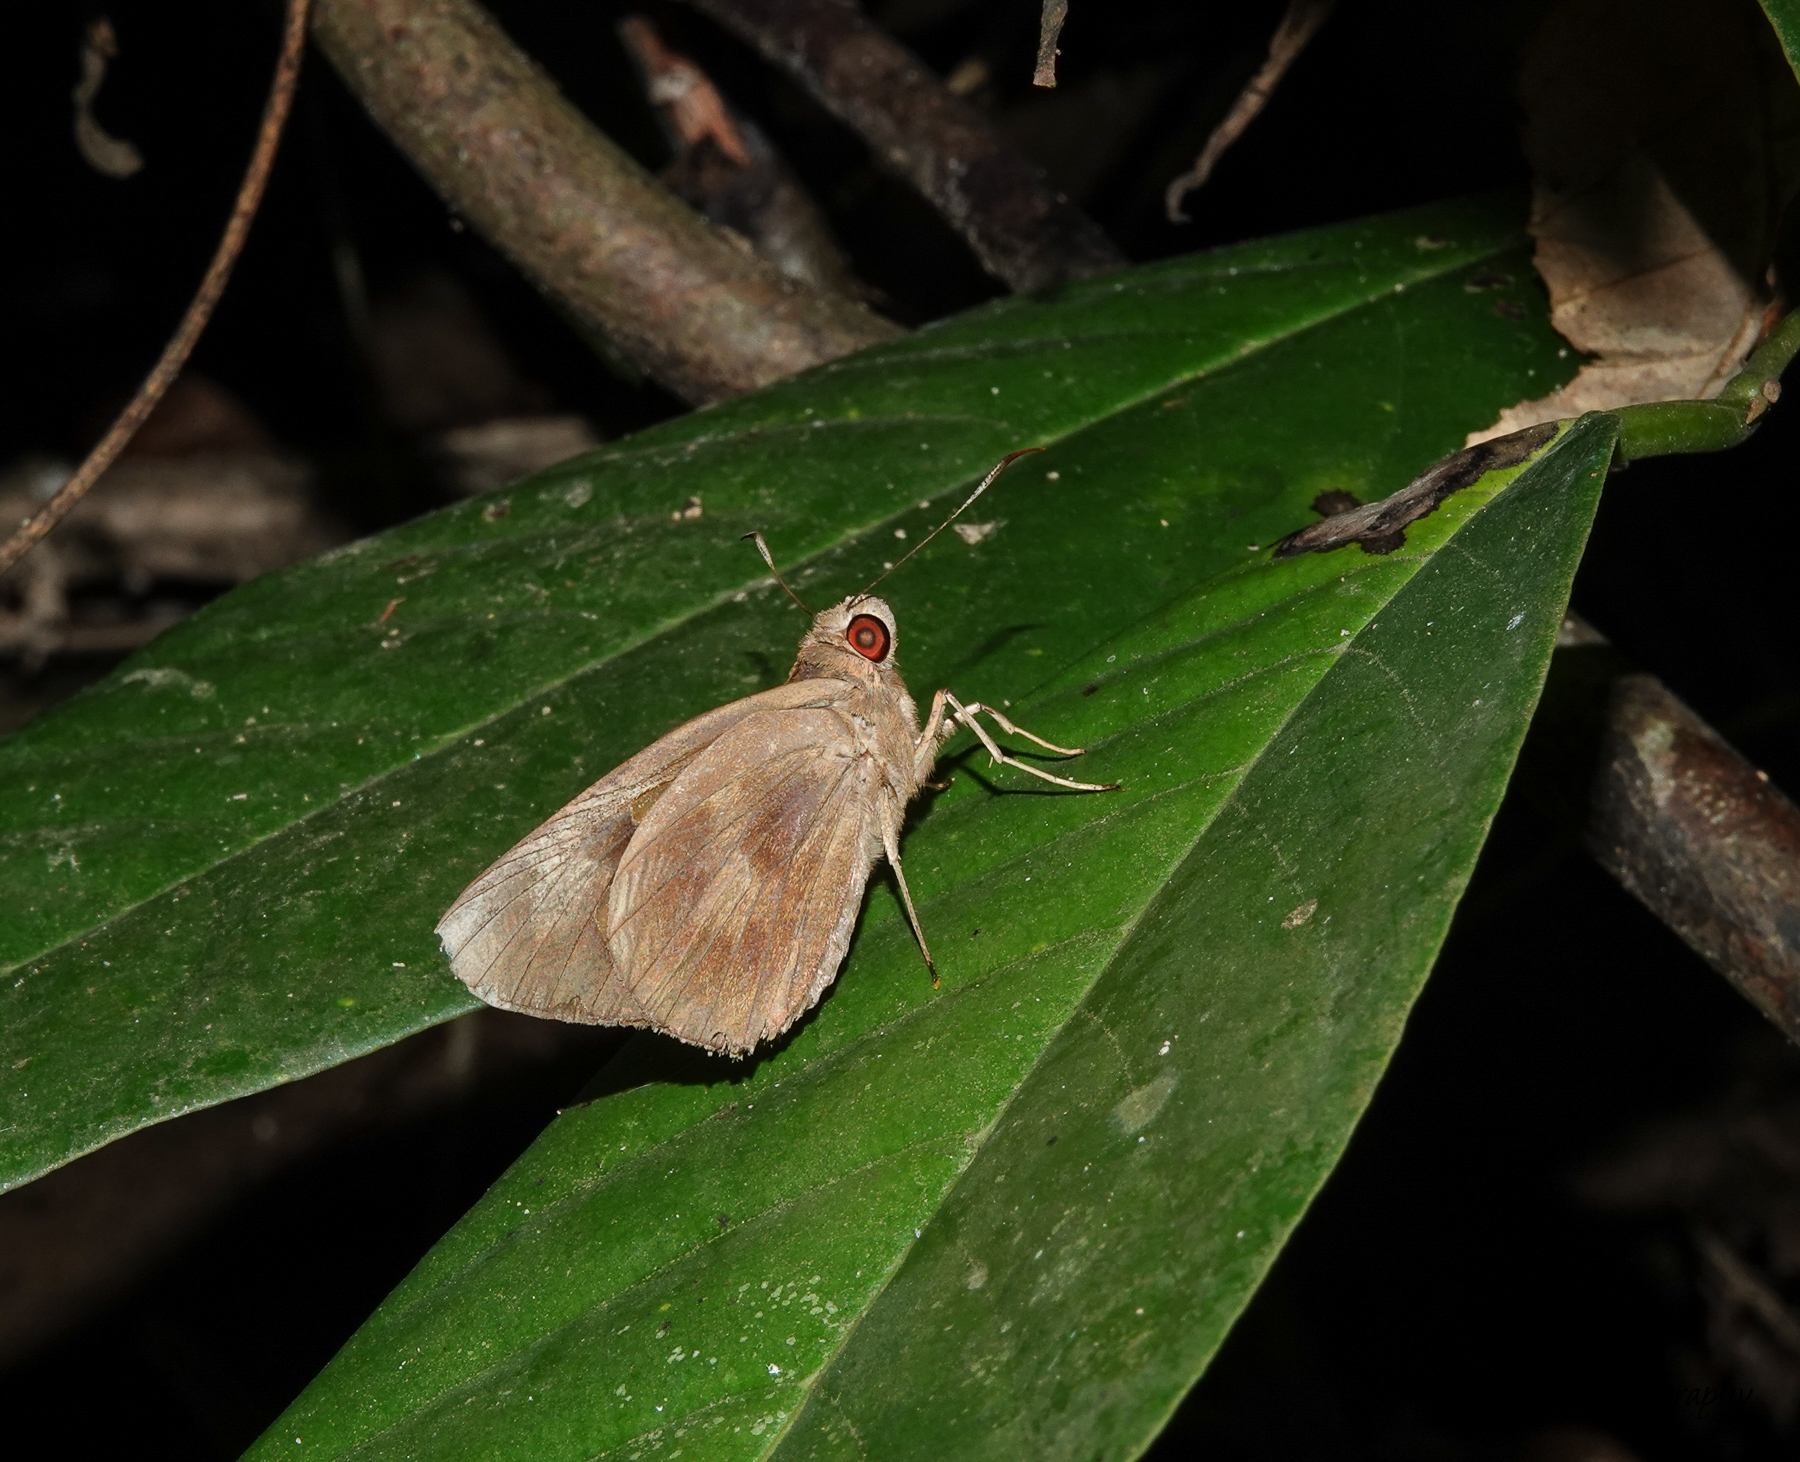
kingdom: Animalia
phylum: Arthropoda
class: Insecta
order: Lepidoptera
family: Hesperiidae
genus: Matapa
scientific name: Matapa aria
